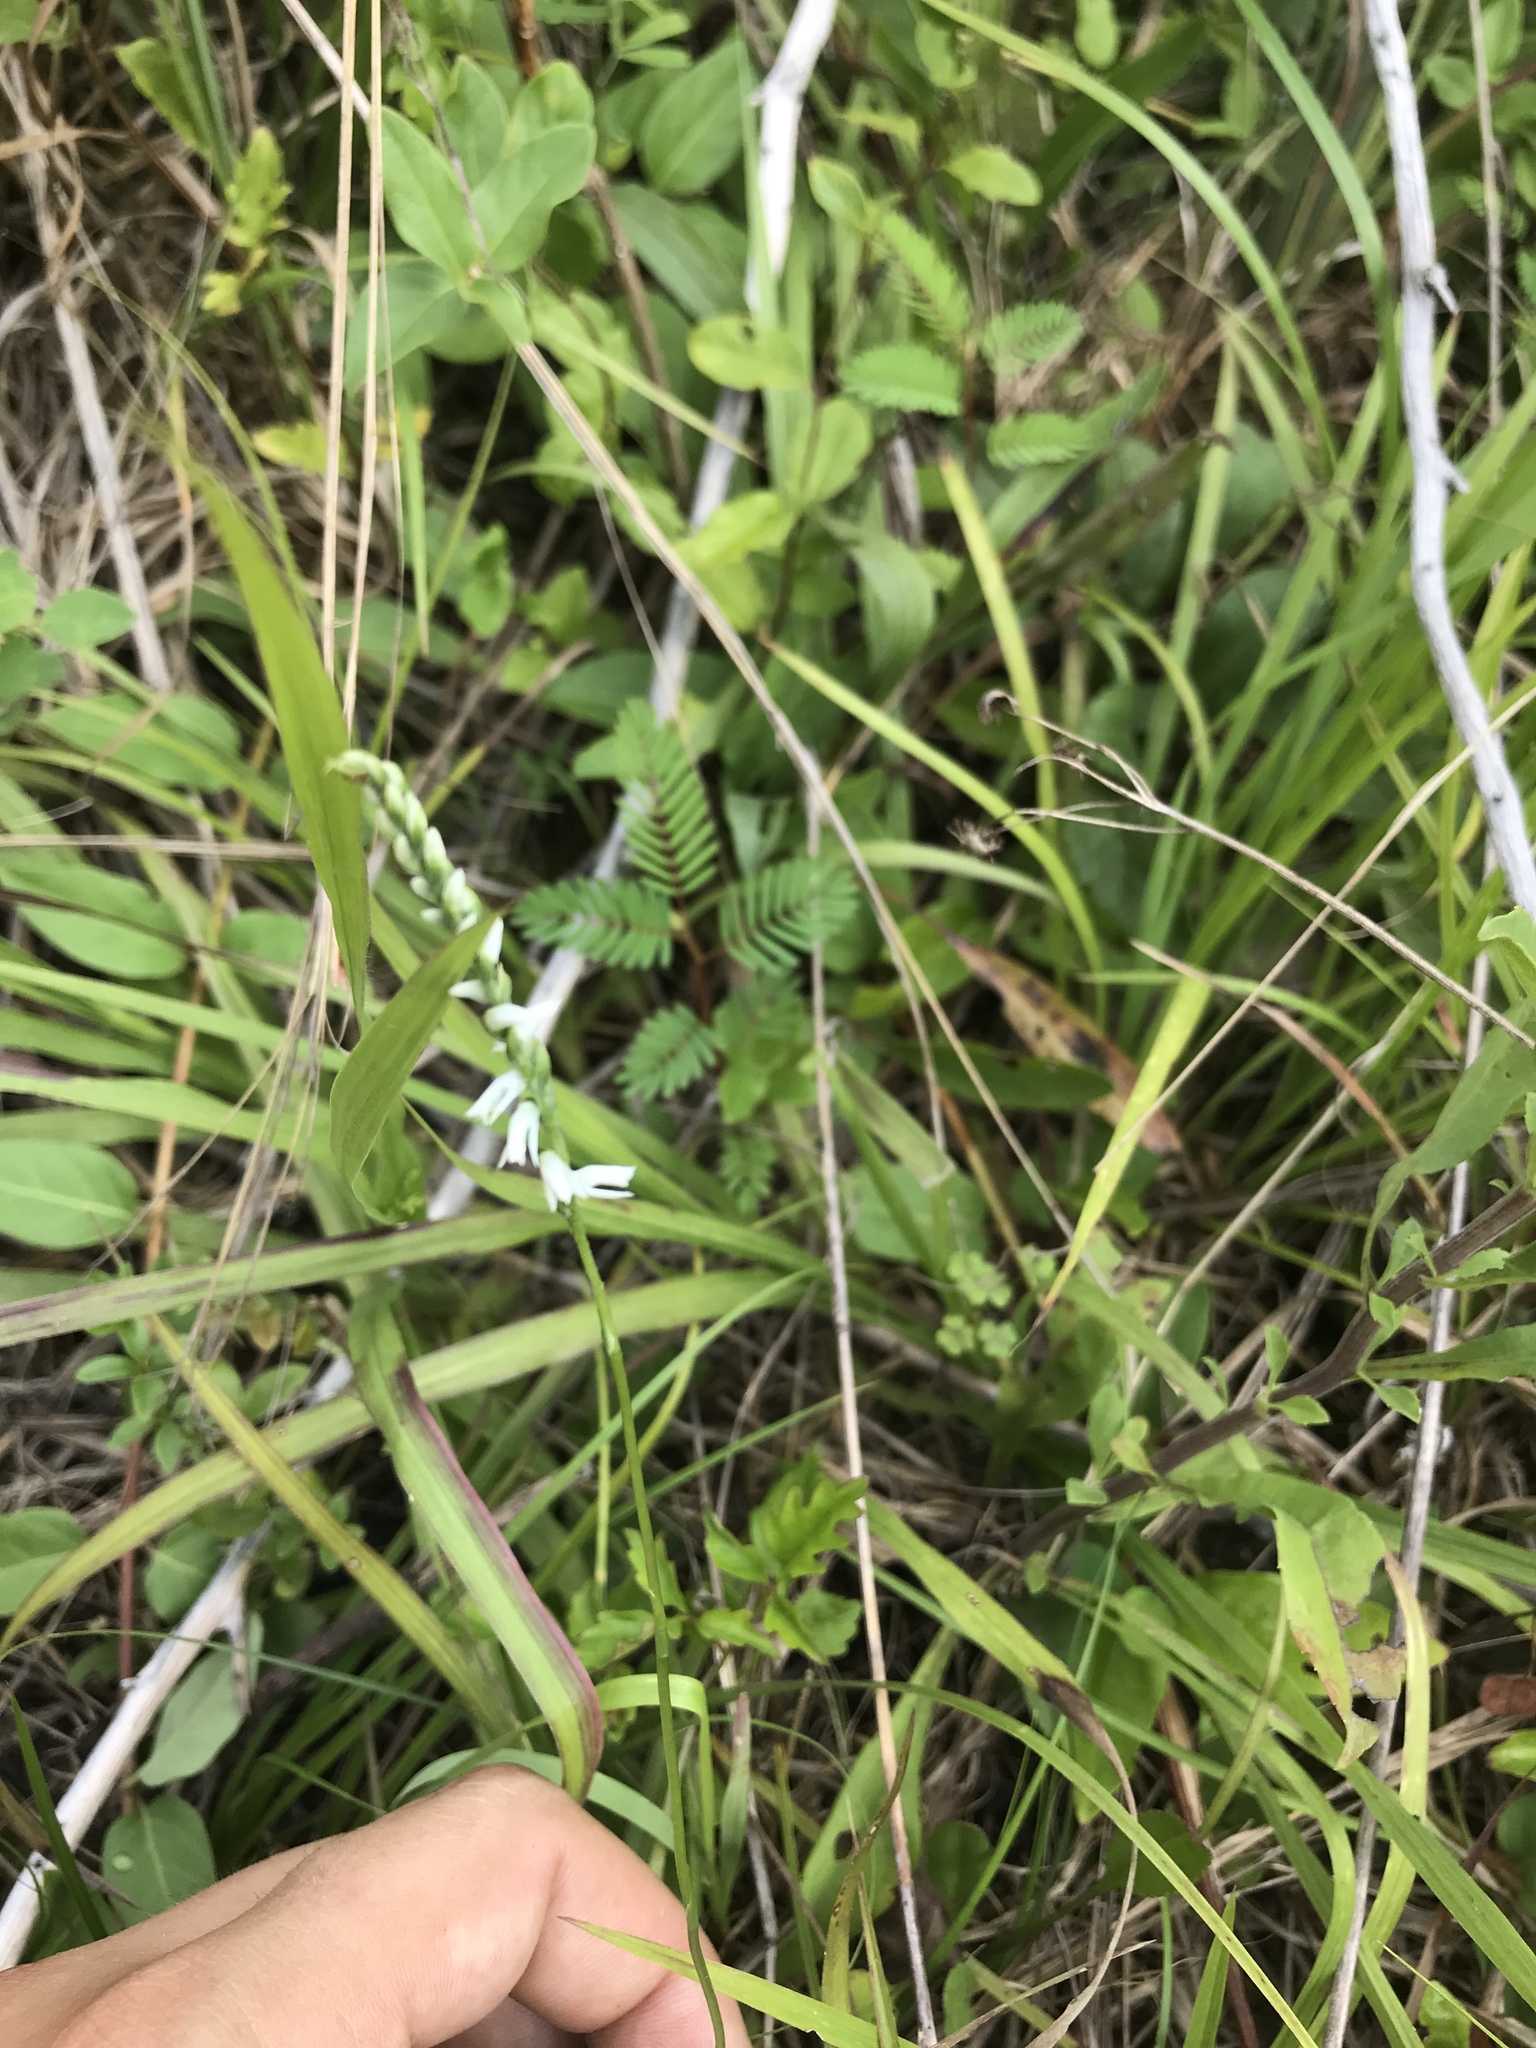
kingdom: Plantae
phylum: Tracheophyta
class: Liliopsida
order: Asparagales
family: Orchidaceae
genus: Spiranthes
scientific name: Spiranthes lacera
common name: Northern slender ladies'-tresses
